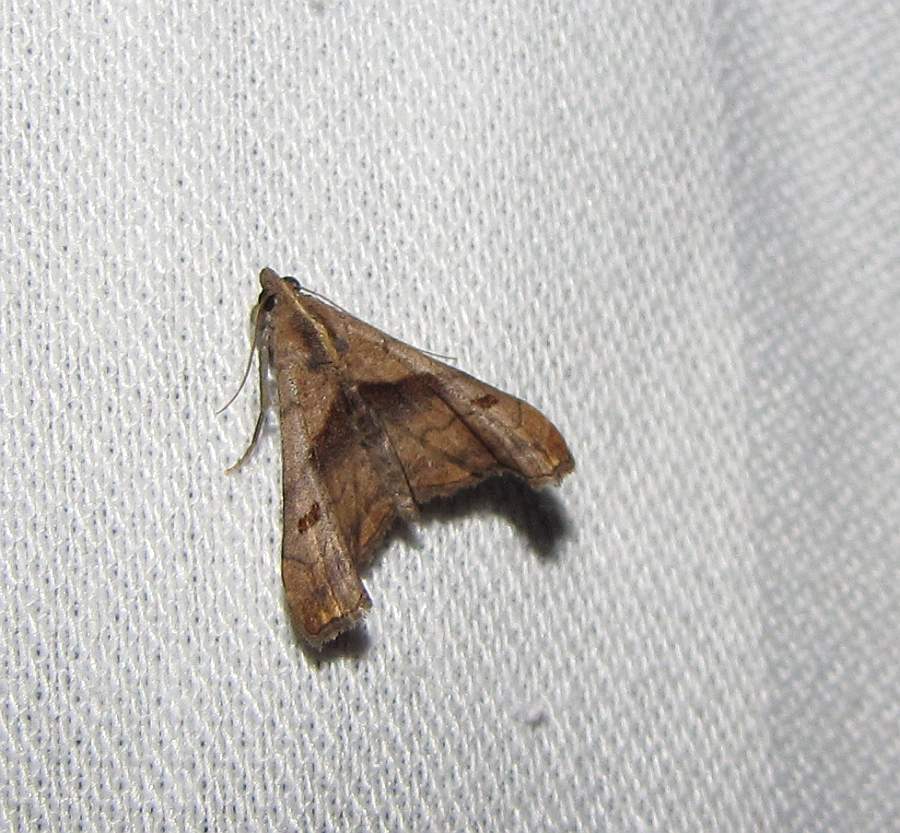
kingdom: Animalia
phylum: Arthropoda
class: Insecta
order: Lepidoptera
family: Erebidae
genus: Palthis
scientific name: Palthis angulalis
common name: Dark-spotted palthis moth
